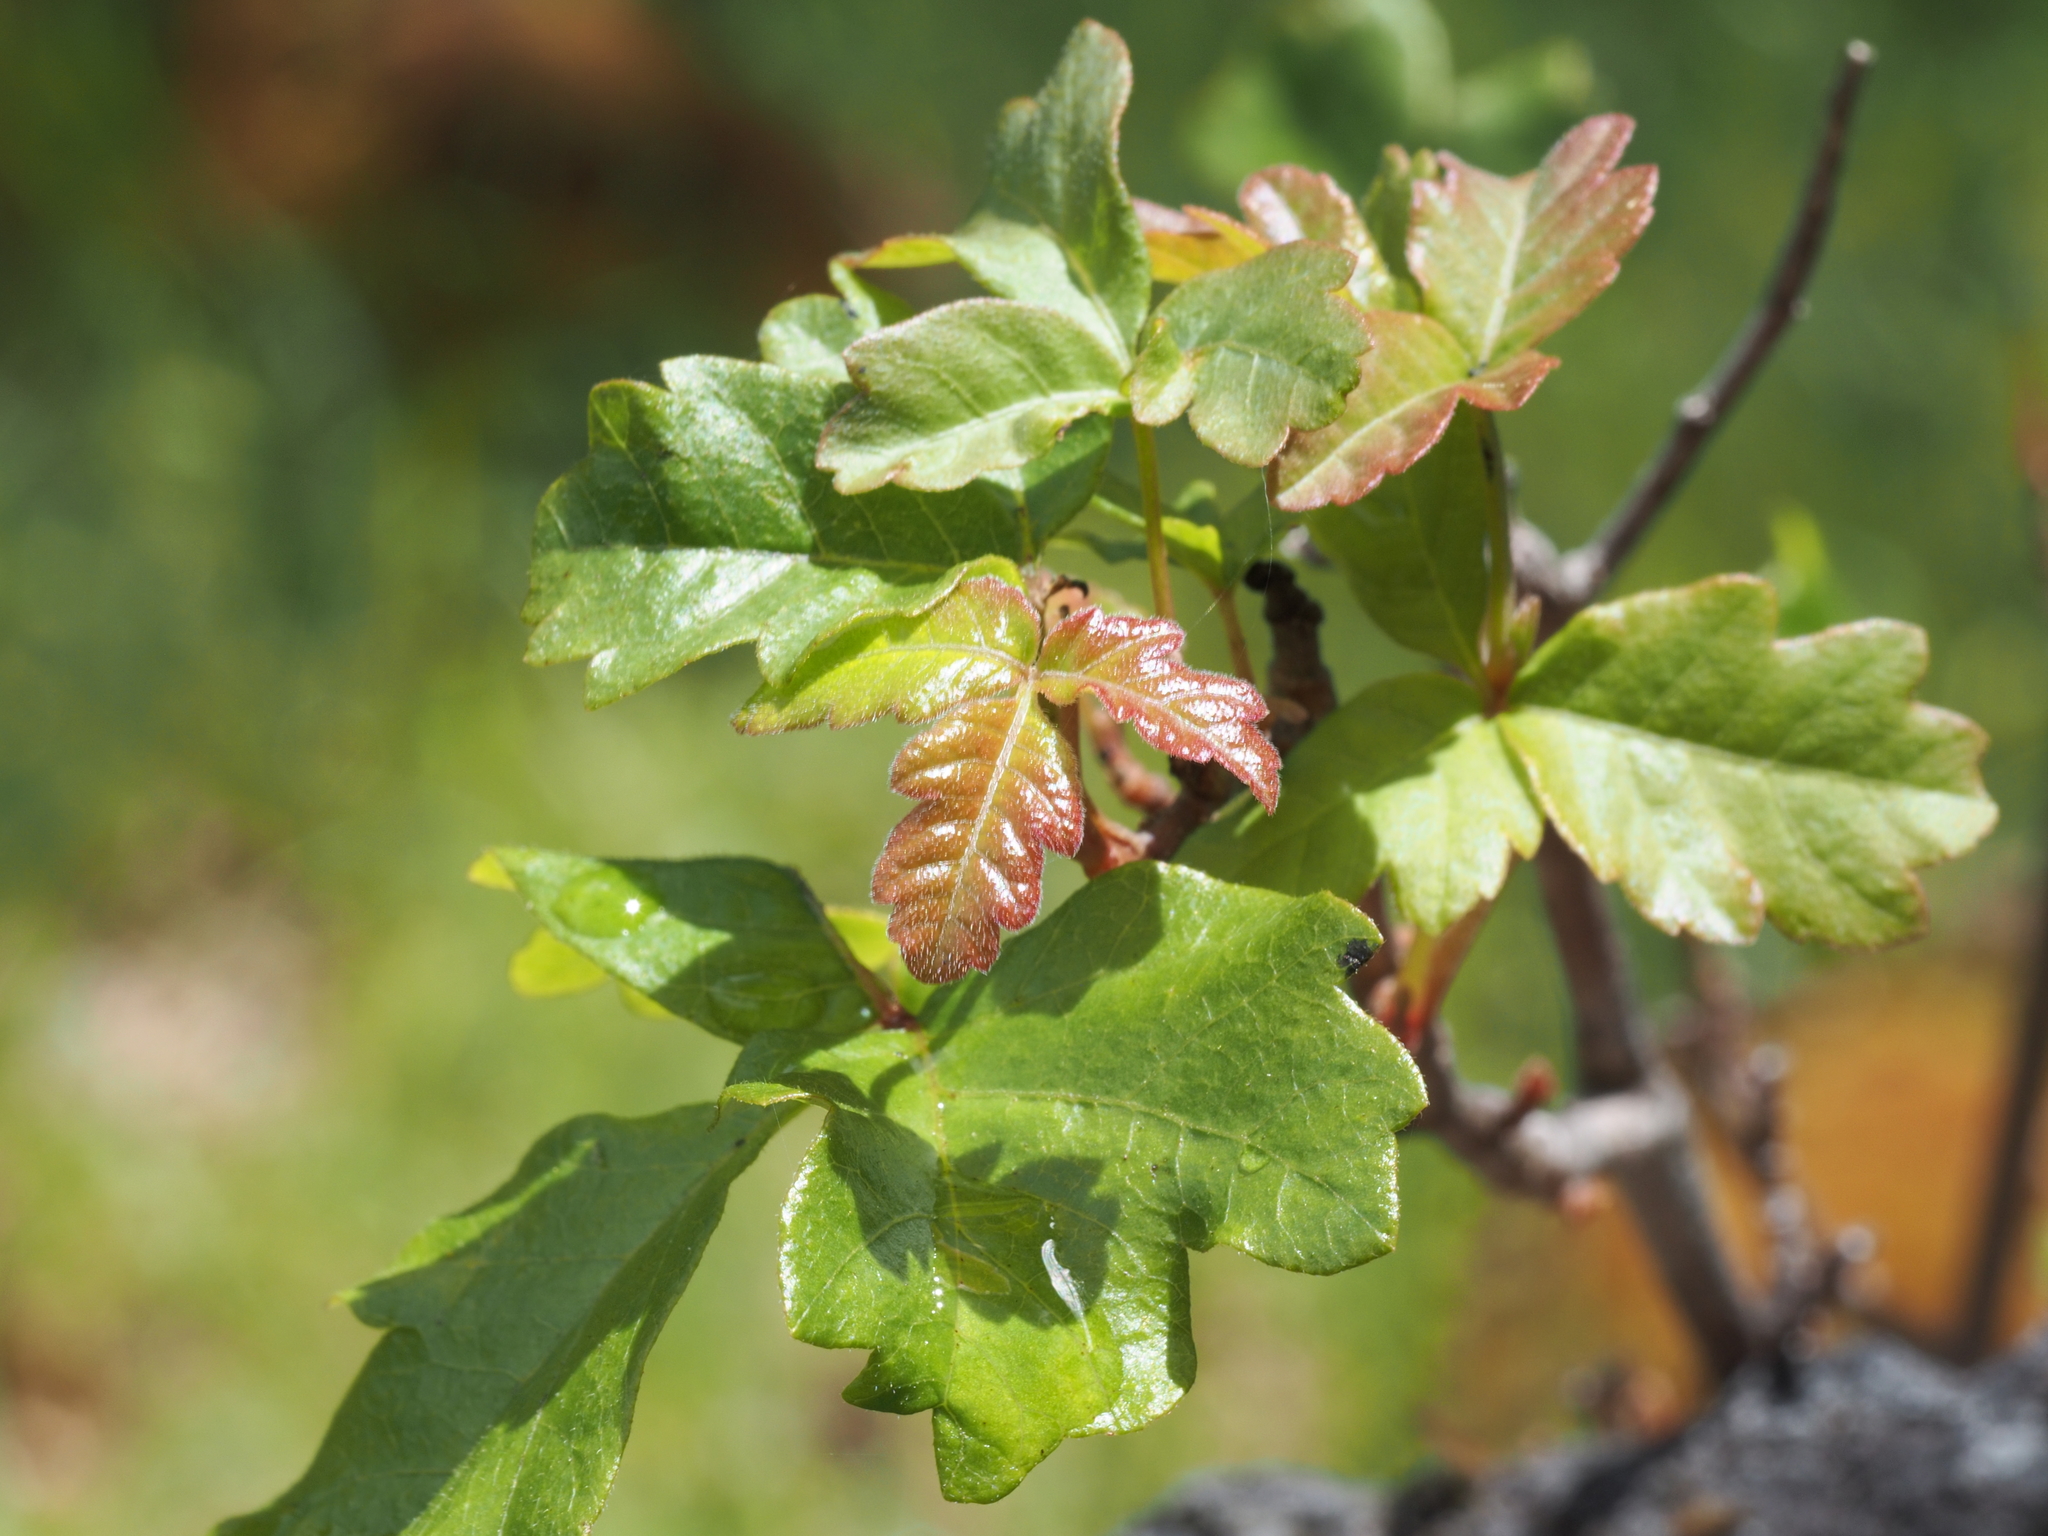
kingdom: Plantae
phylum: Tracheophyta
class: Magnoliopsida
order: Sapindales
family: Anacardiaceae
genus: Toxicodendron
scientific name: Toxicodendron diversilobum
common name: Pacific poison-oak
